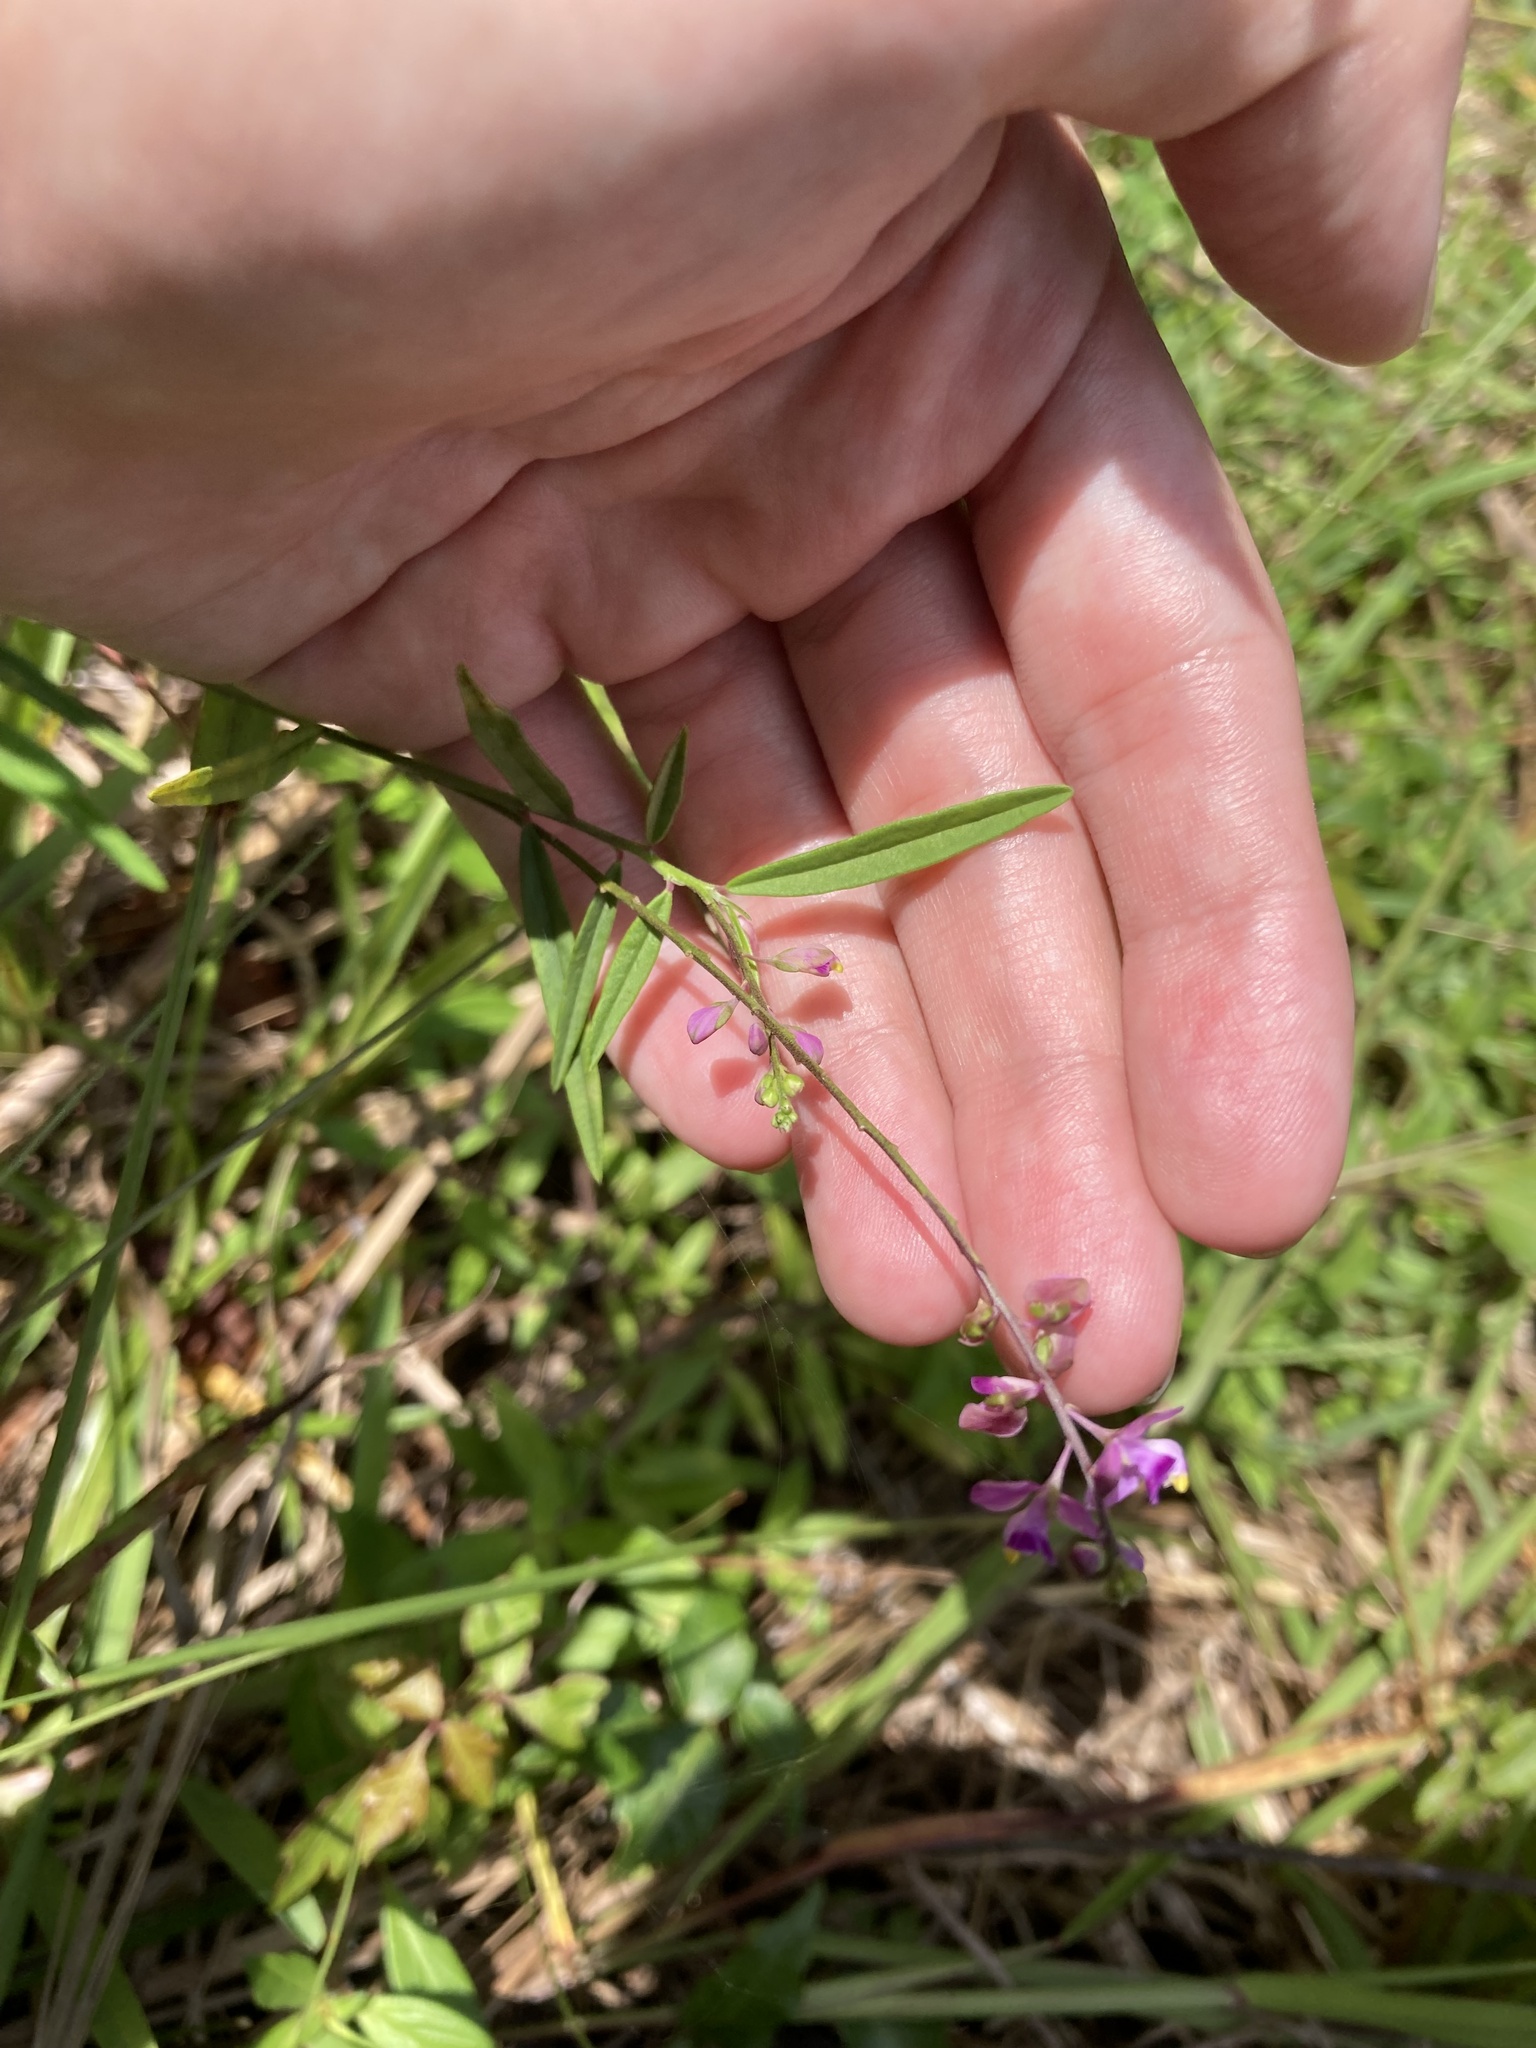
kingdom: Plantae
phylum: Tracheophyta
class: Magnoliopsida
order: Fabales
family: Polygalaceae
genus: Asemeia
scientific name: Asemeia grandiflora
